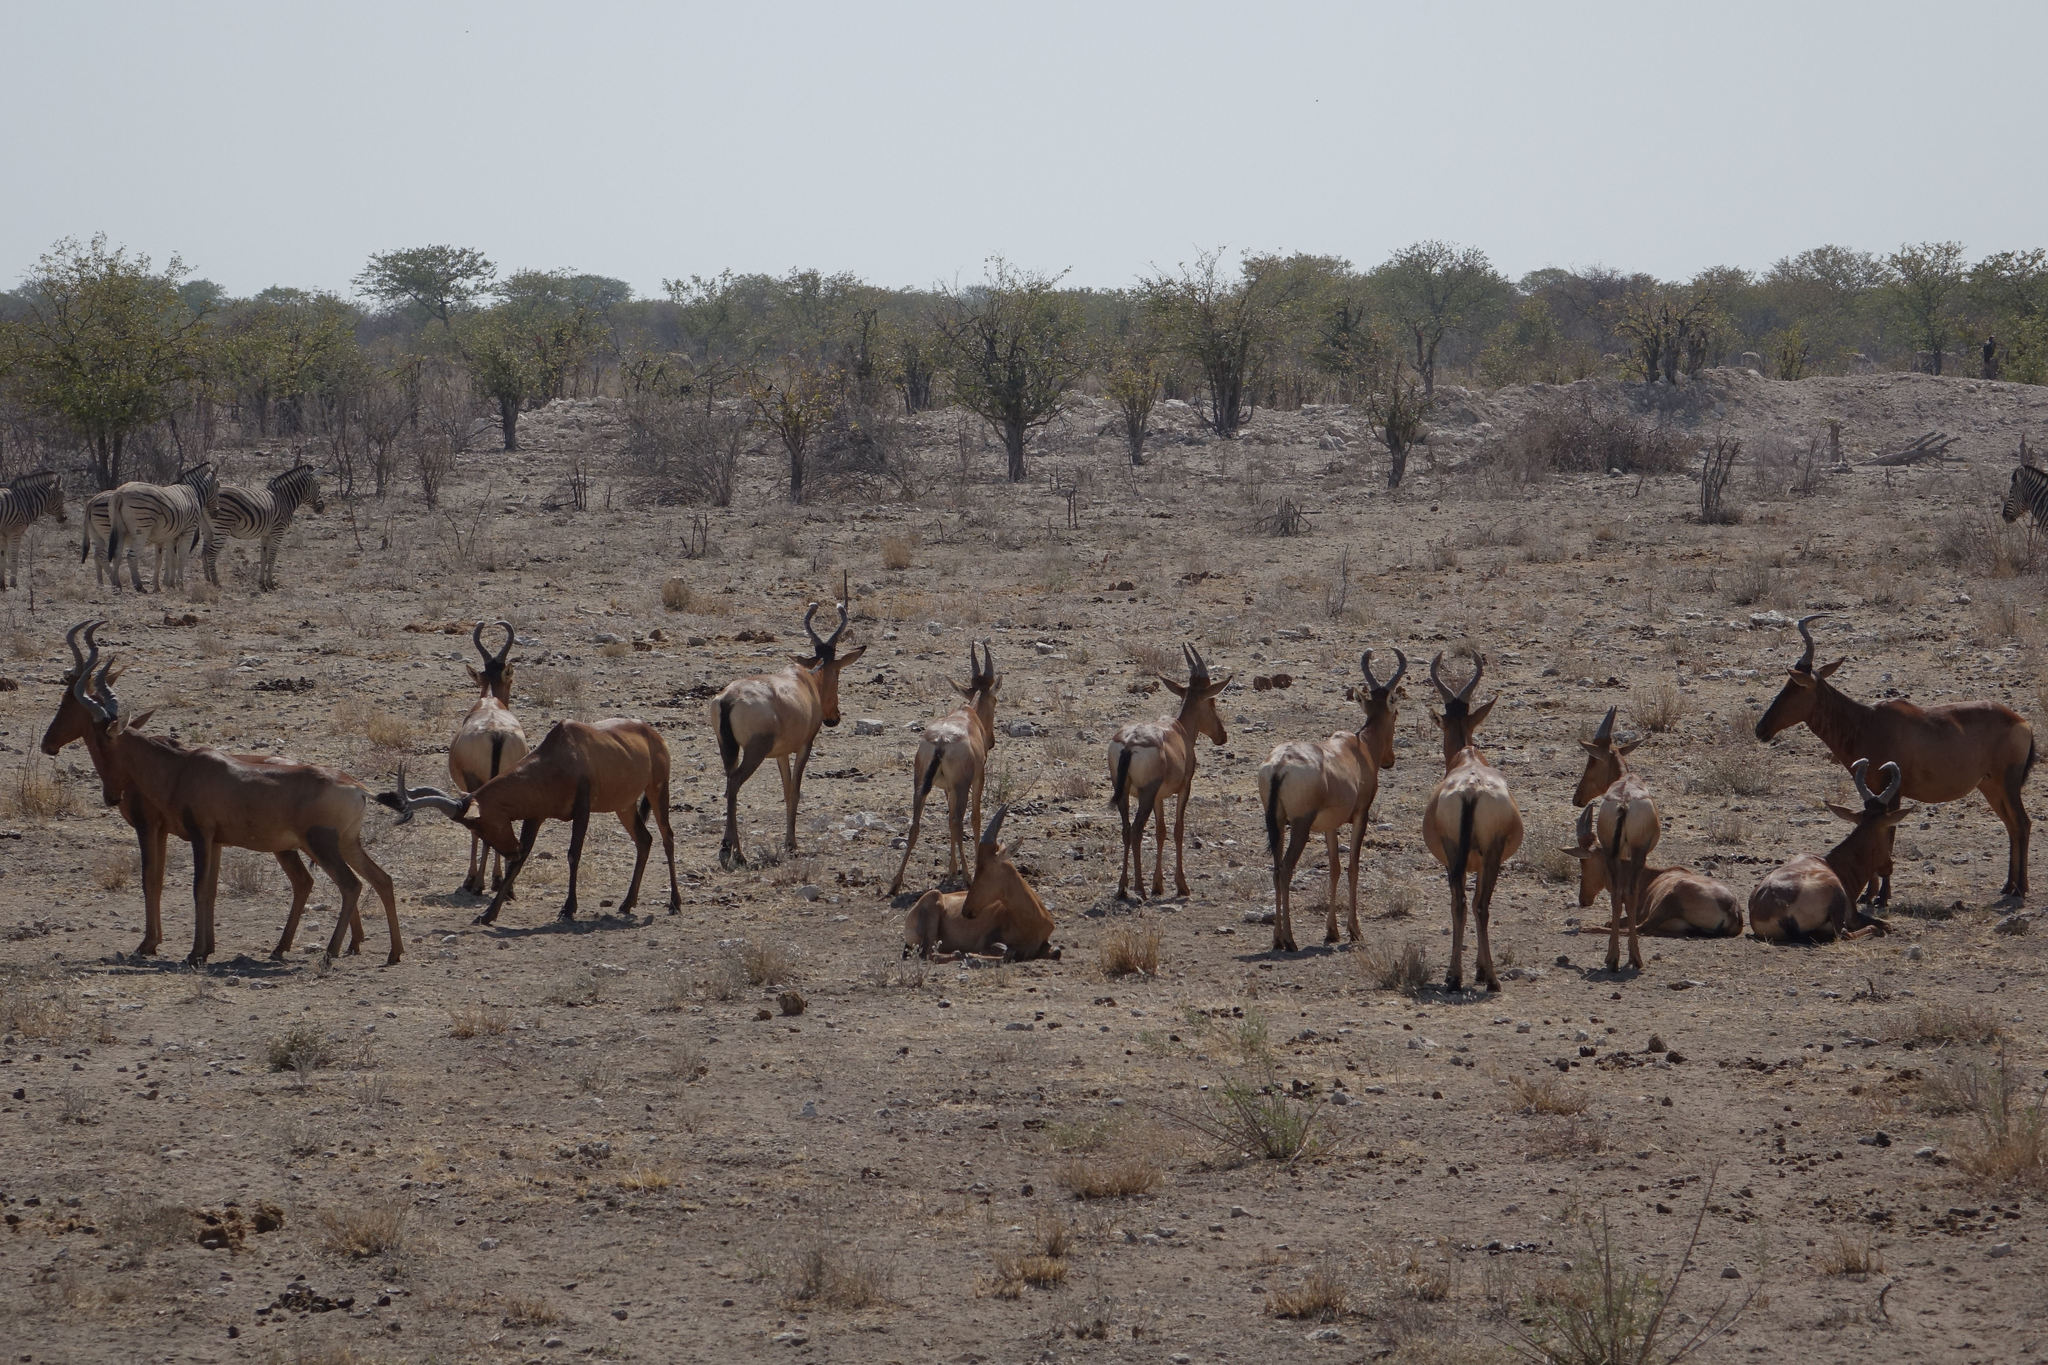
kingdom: Animalia
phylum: Chordata
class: Mammalia
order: Artiodactyla
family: Bovidae
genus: Alcelaphus
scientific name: Alcelaphus caama
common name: Red hartebeest
